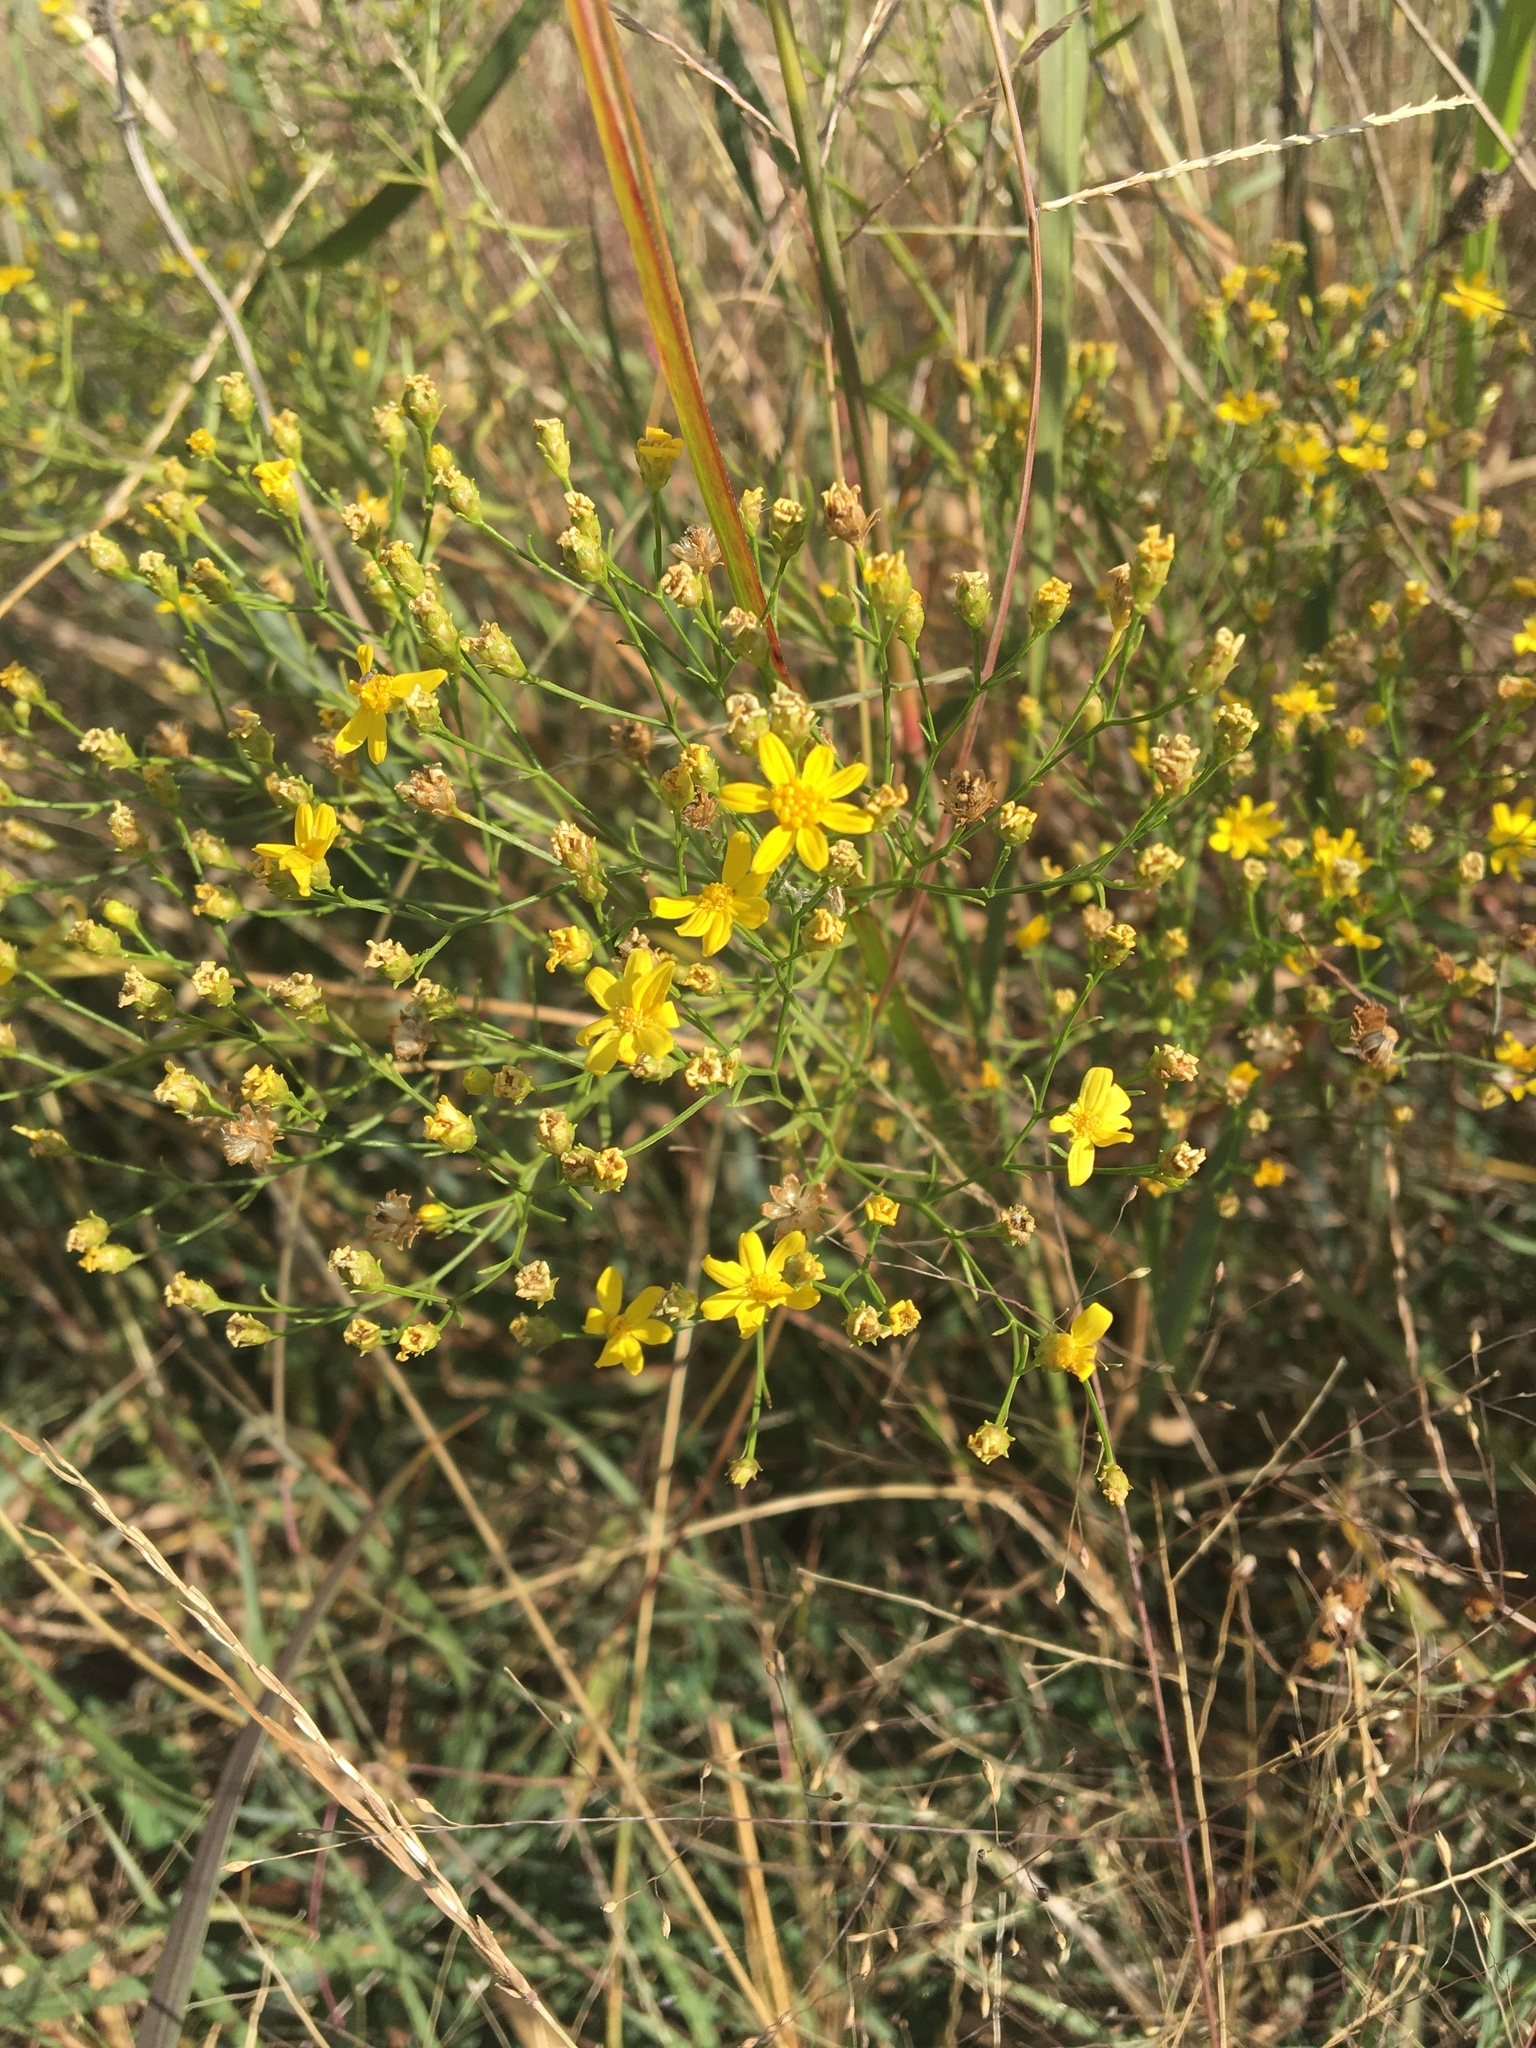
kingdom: Plantae
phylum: Tracheophyta
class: Magnoliopsida
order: Asterales
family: Asteraceae
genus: Amphiachyris
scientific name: Amphiachyris dracunculoides
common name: Broomweed
